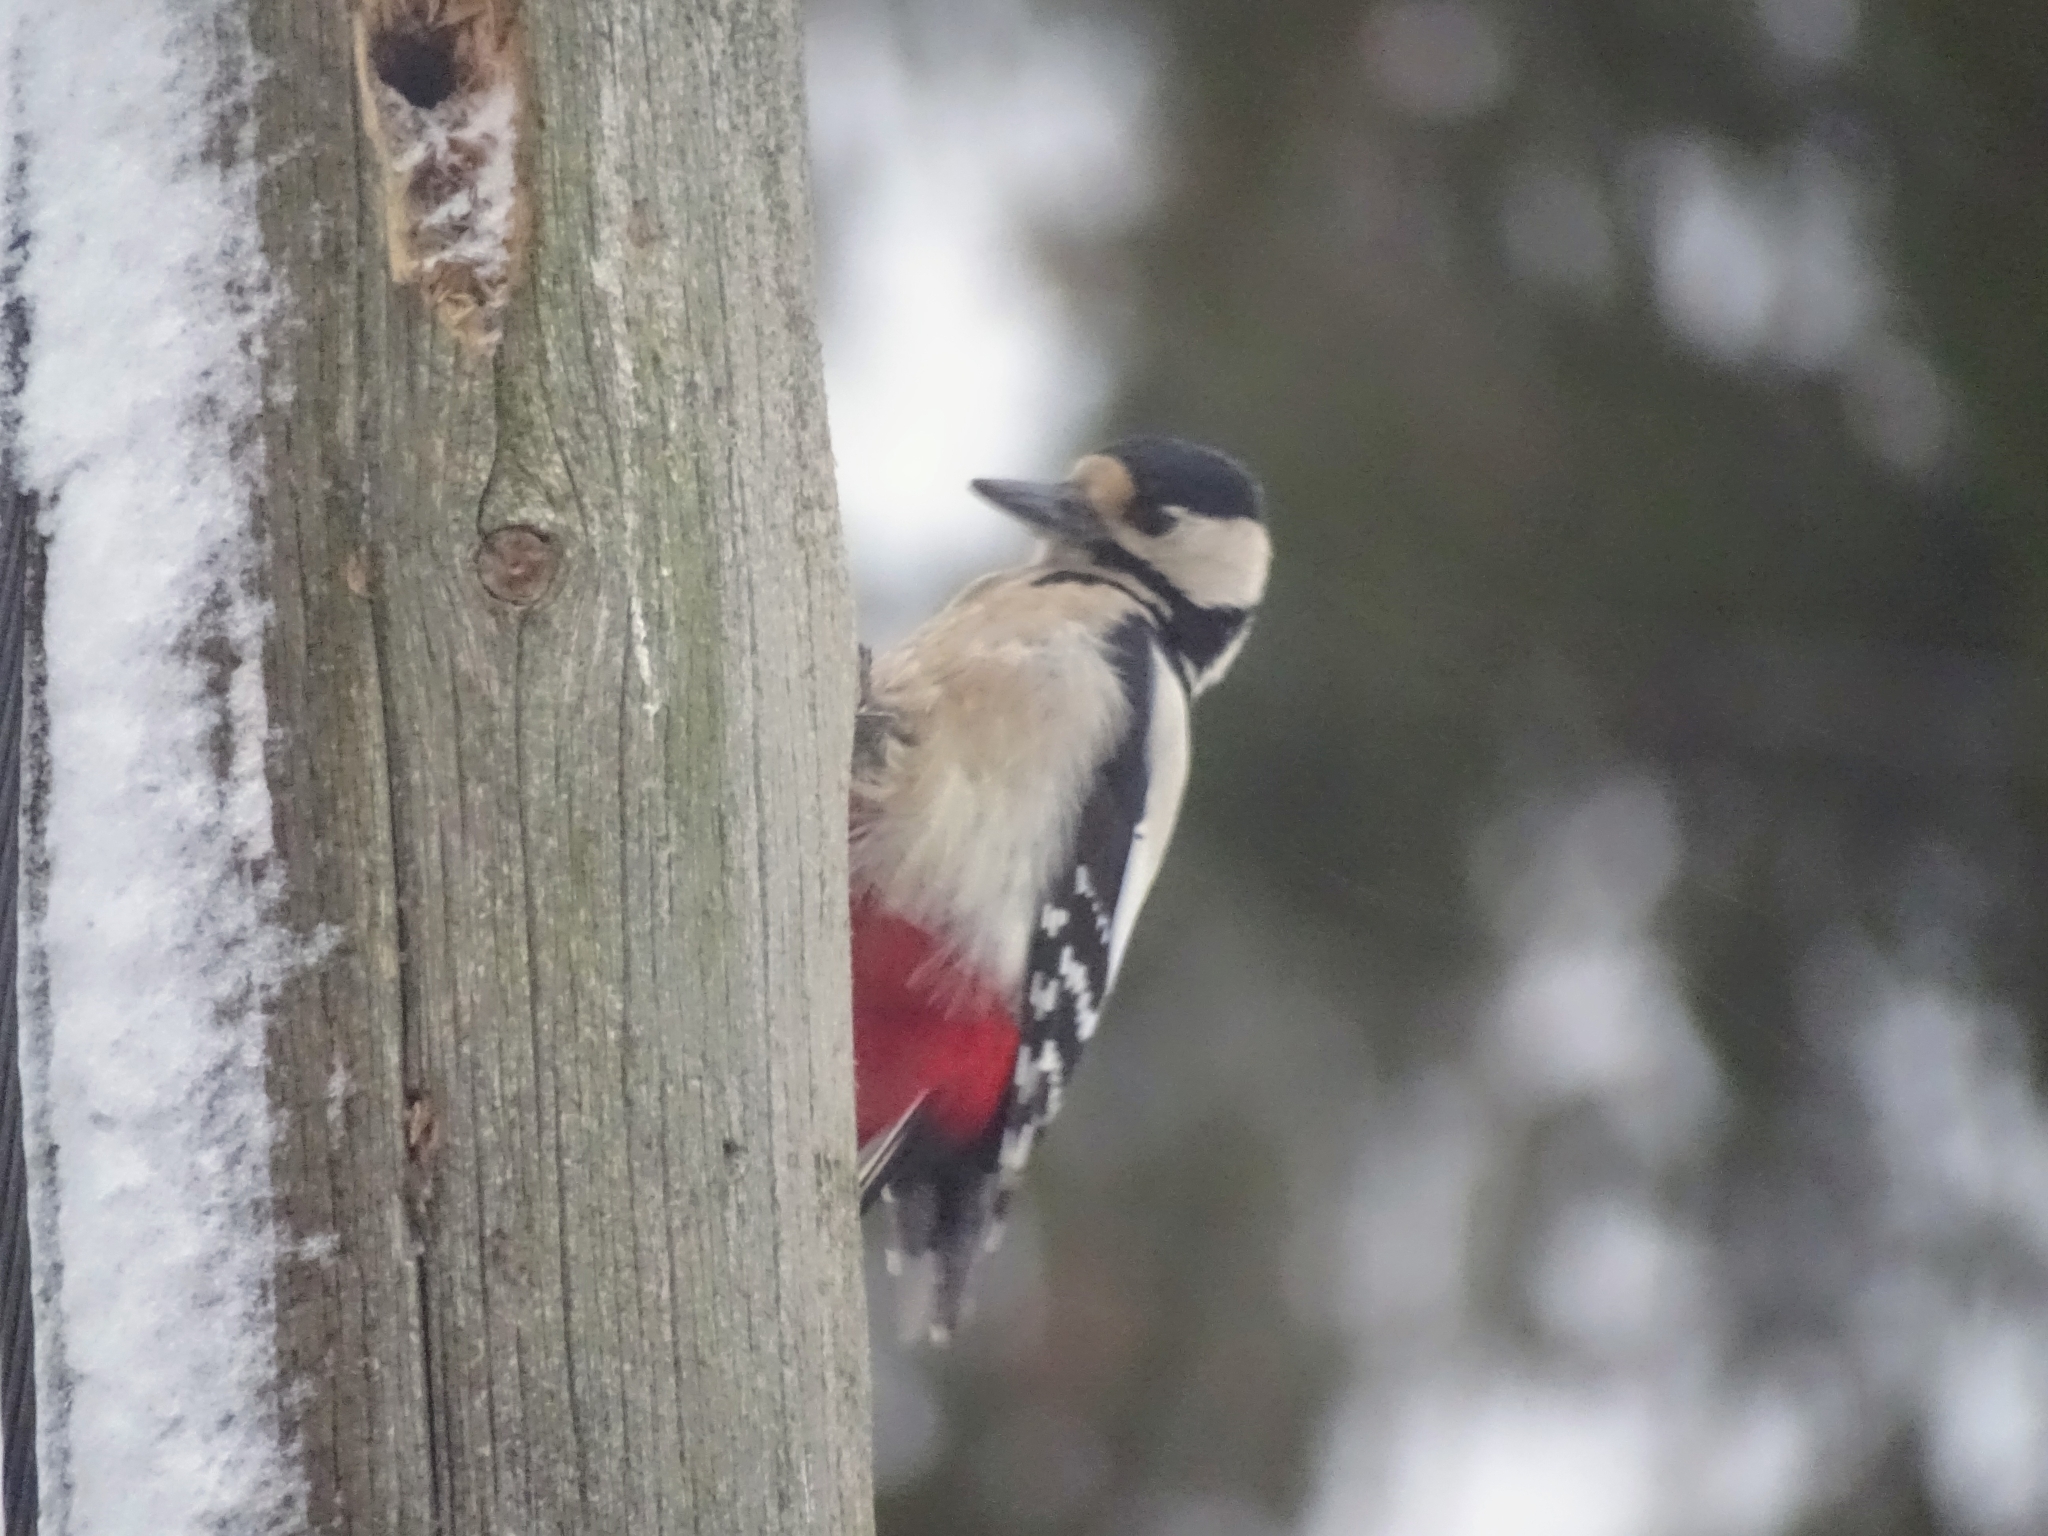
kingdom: Animalia
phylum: Chordata
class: Aves
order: Piciformes
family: Picidae
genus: Dendrocopos
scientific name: Dendrocopos major
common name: Great spotted woodpecker
